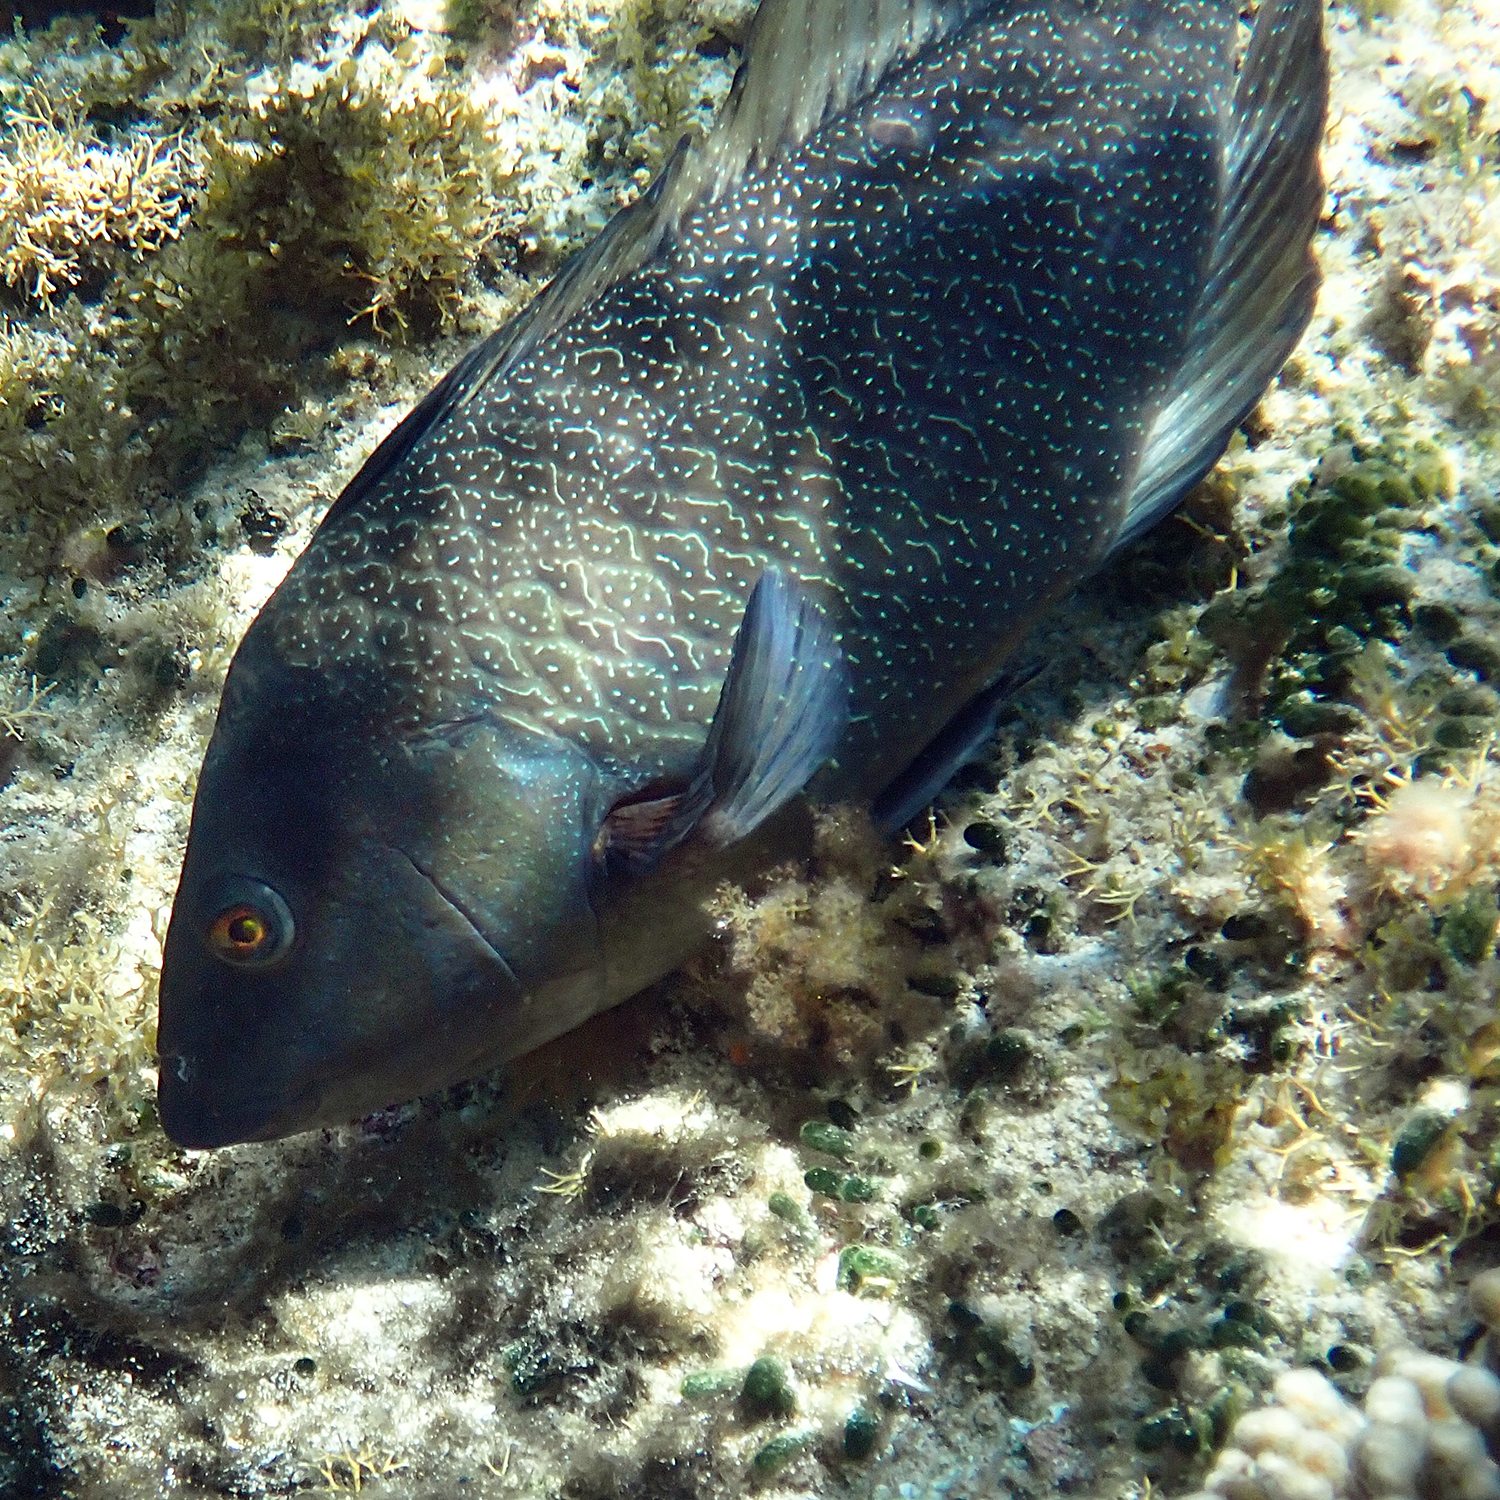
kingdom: Animalia
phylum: Chordata
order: Perciformes
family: Labridae
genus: Notolabrus
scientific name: Notolabrus inscriptus
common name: Green wrasse
